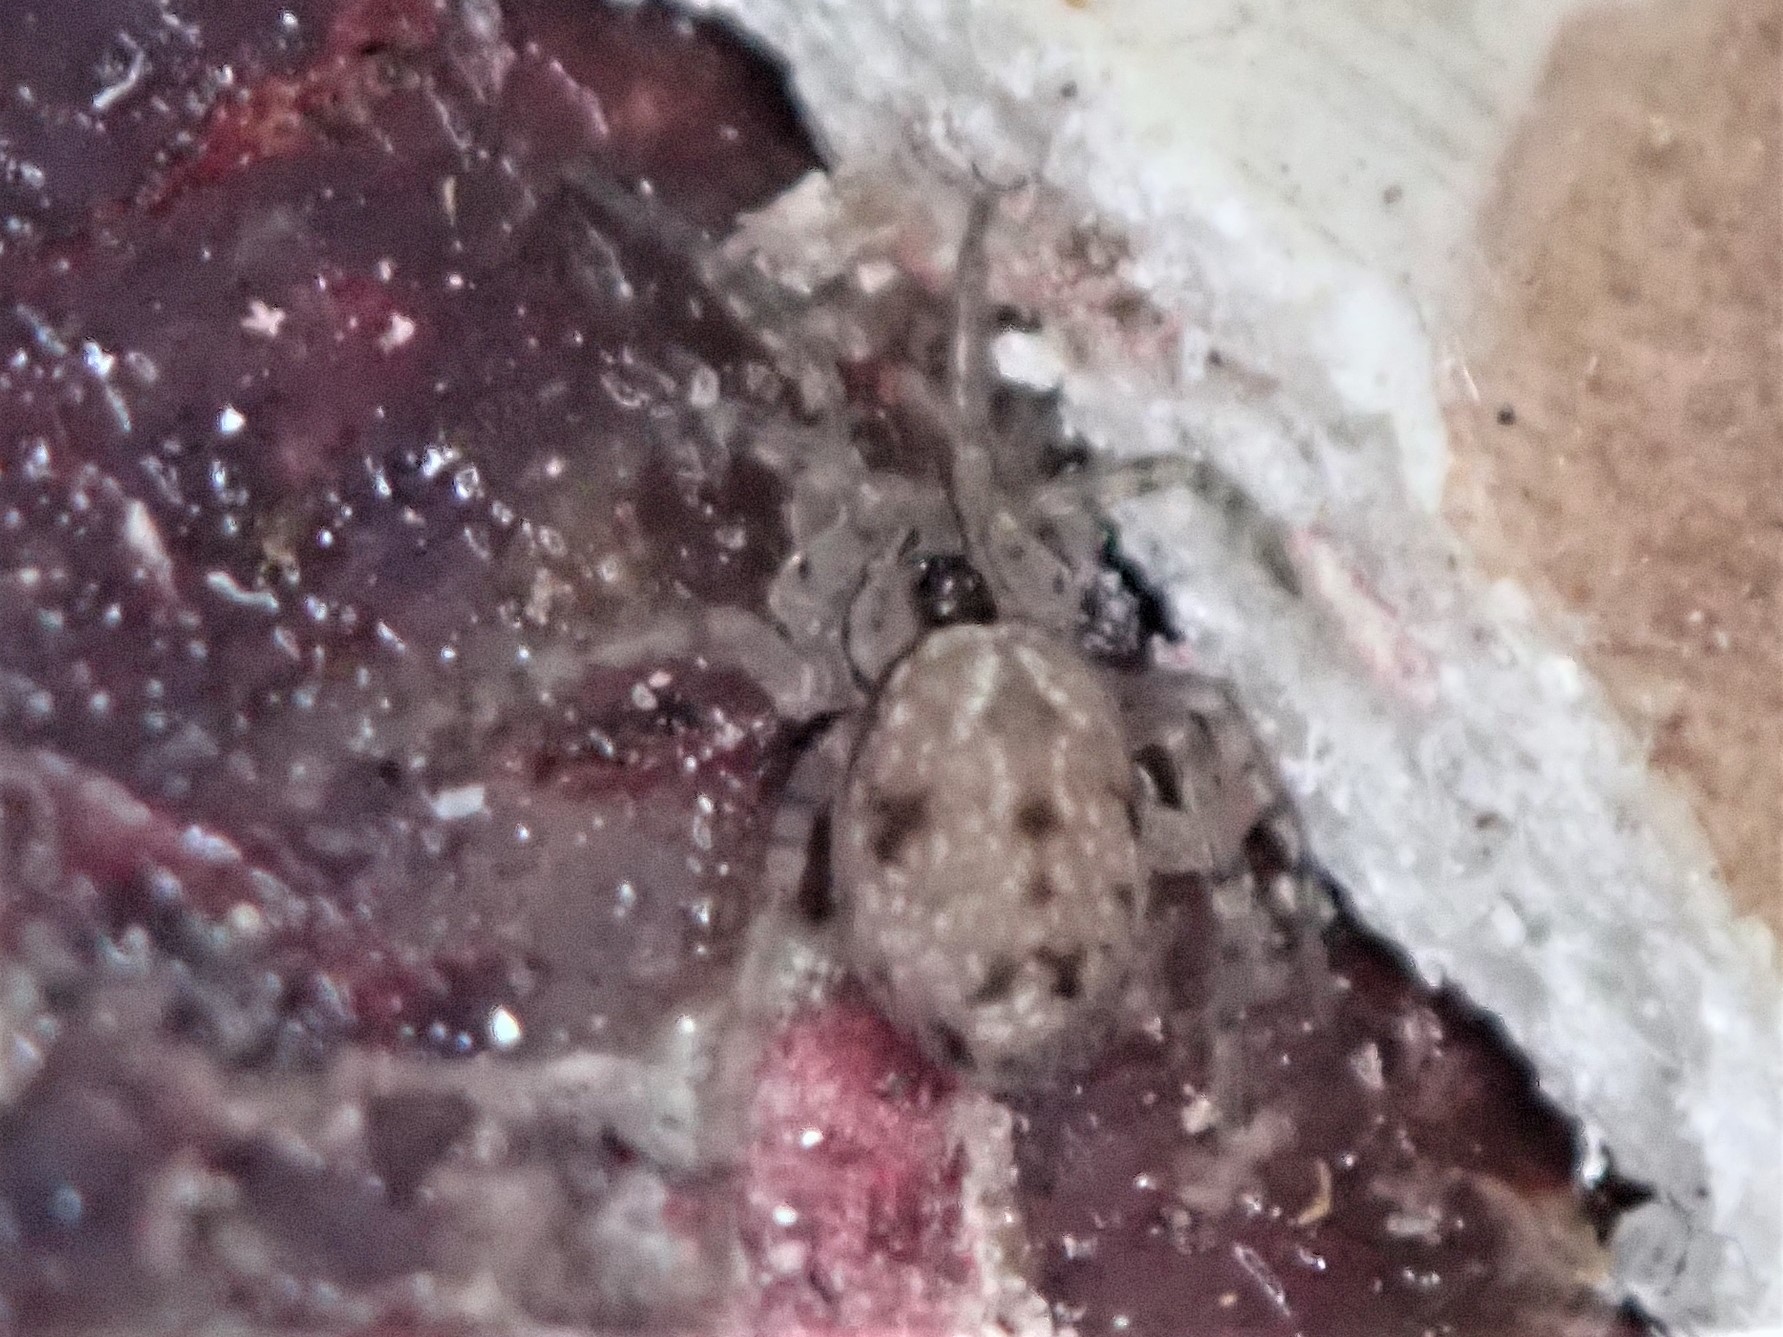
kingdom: Animalia
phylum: Arthropoda
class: Arachnida
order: Araneae
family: Oecobiidae
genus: Oecobius
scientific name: Oecobius navus
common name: Flatmesh weaver
